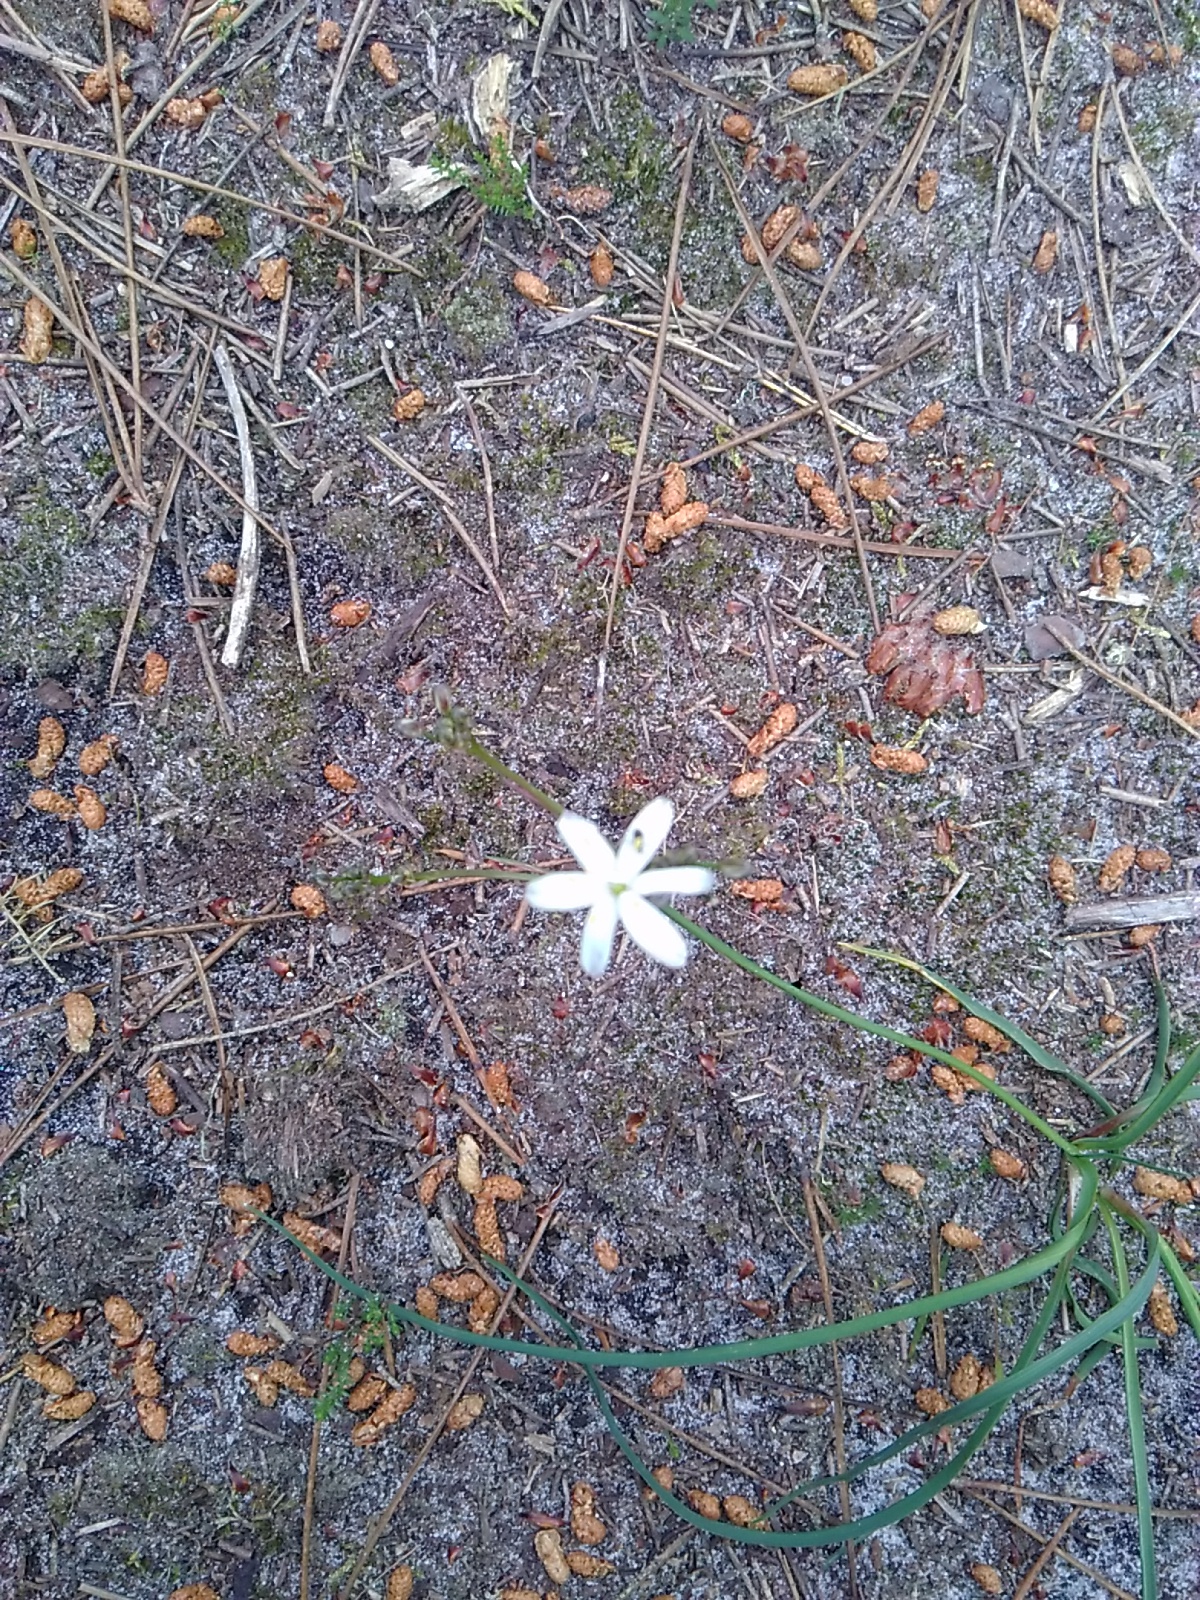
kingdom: Plantae
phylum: Tracheophyta
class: Liliopsida
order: Asparagales
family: Asphodelaceae
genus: Simethis
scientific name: Simethis mattiazzii
